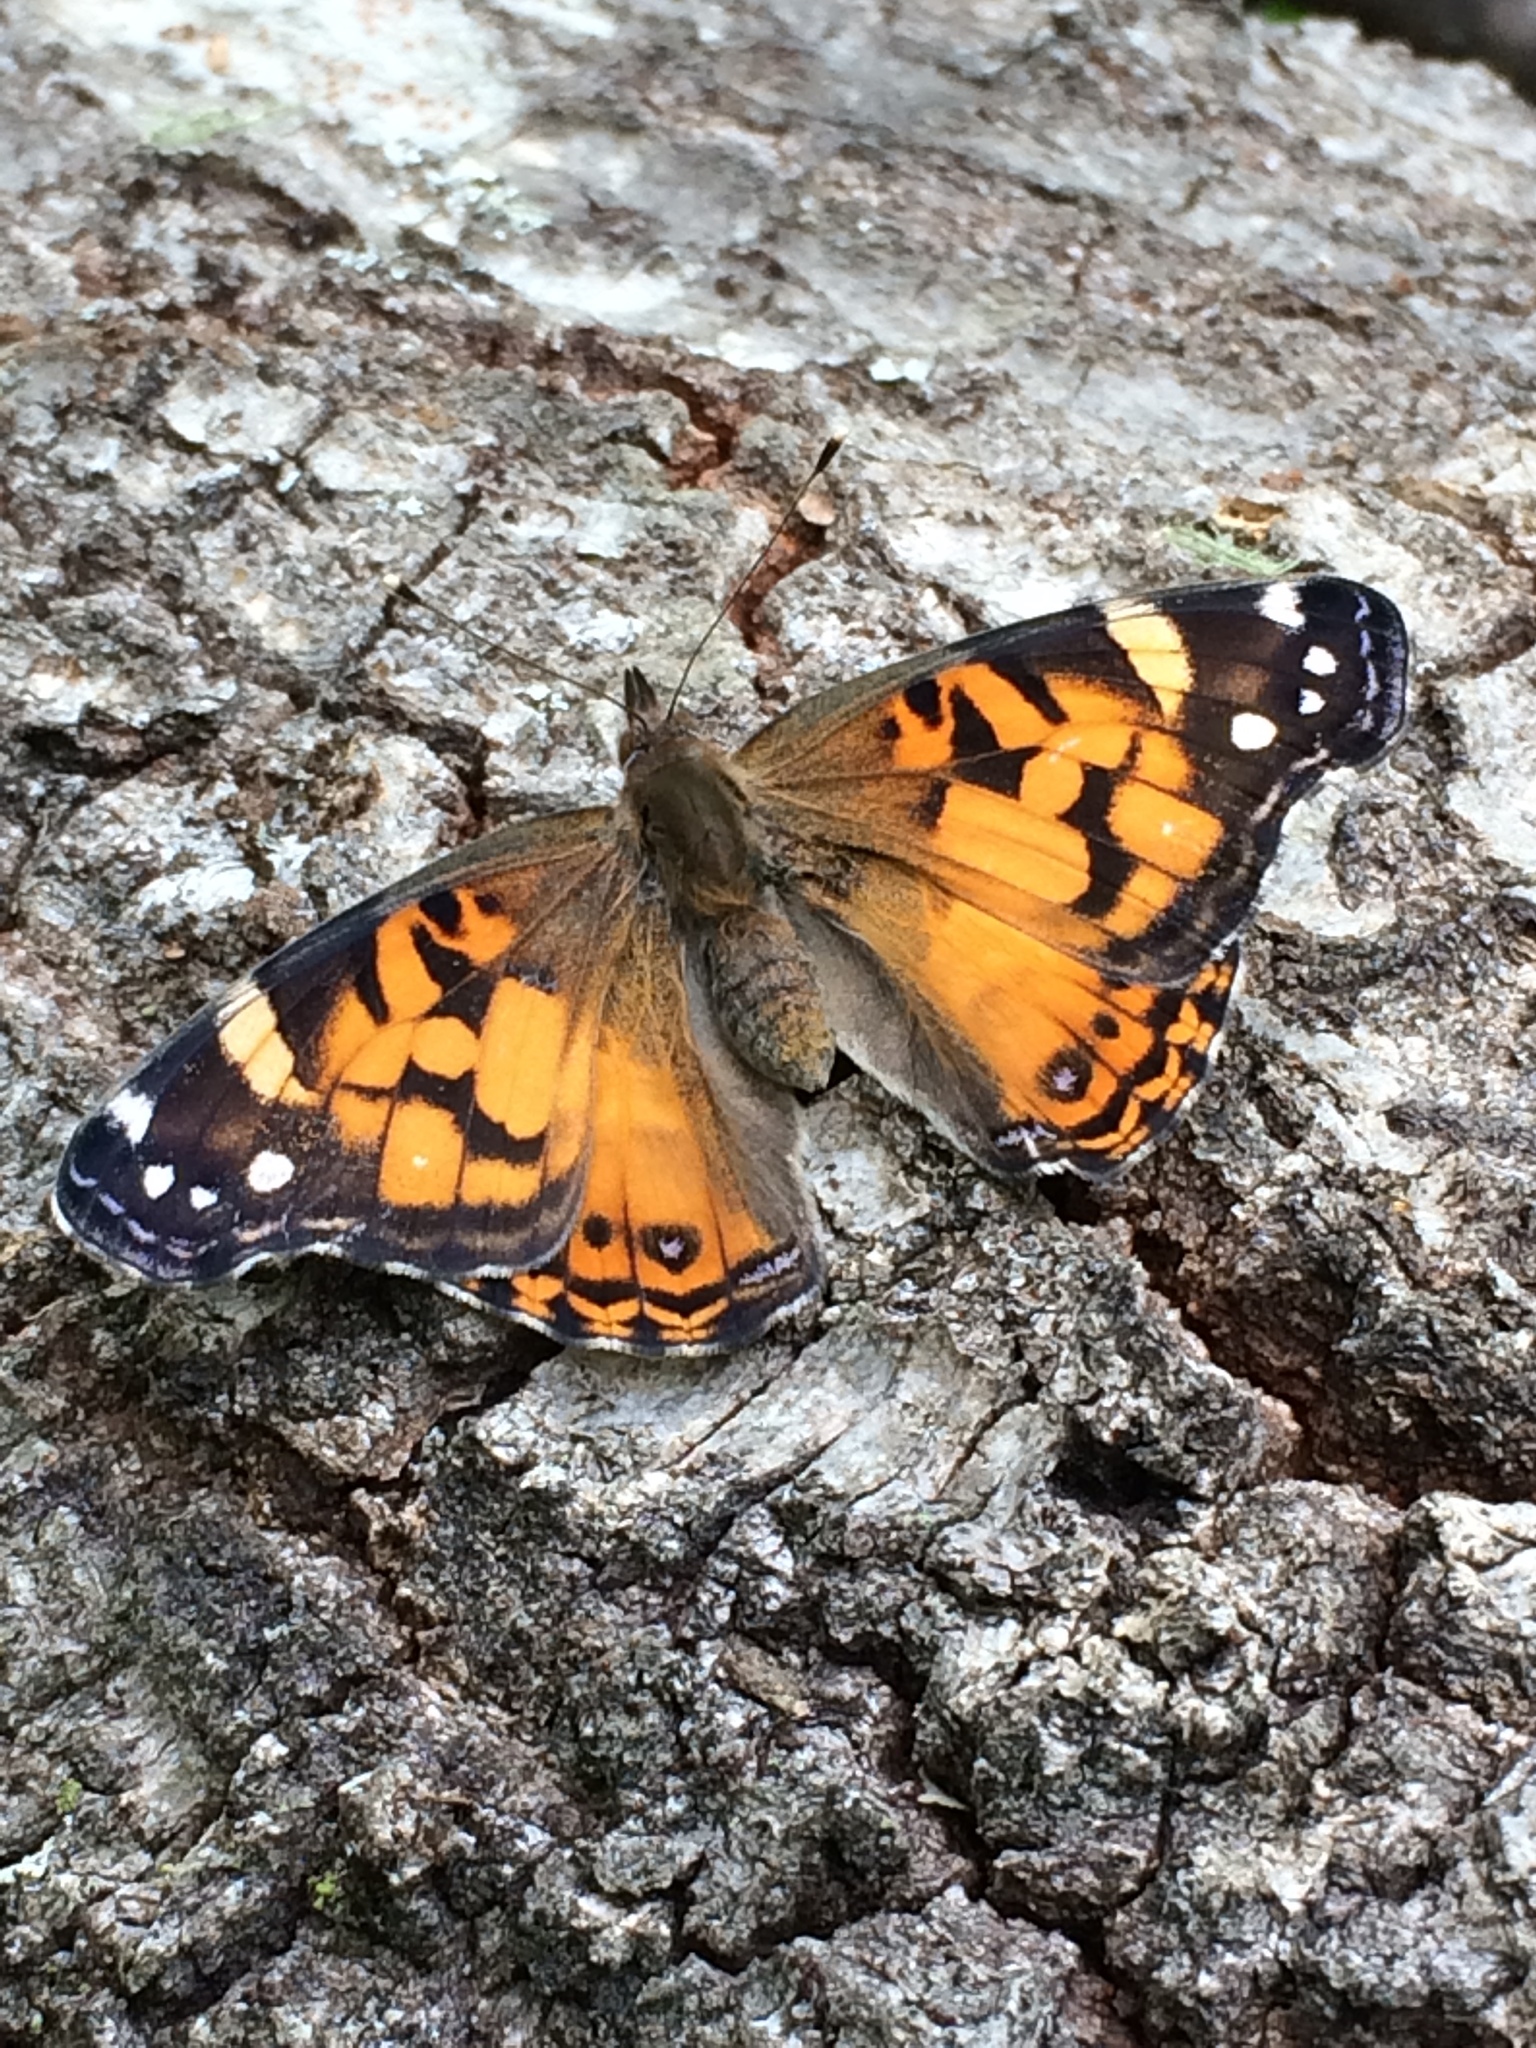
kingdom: Animalia
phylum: Arthropoda
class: Insecta
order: Lepidoptera
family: Nymphalidae
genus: Vanessa
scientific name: Vanessa virginiensis
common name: American lady
